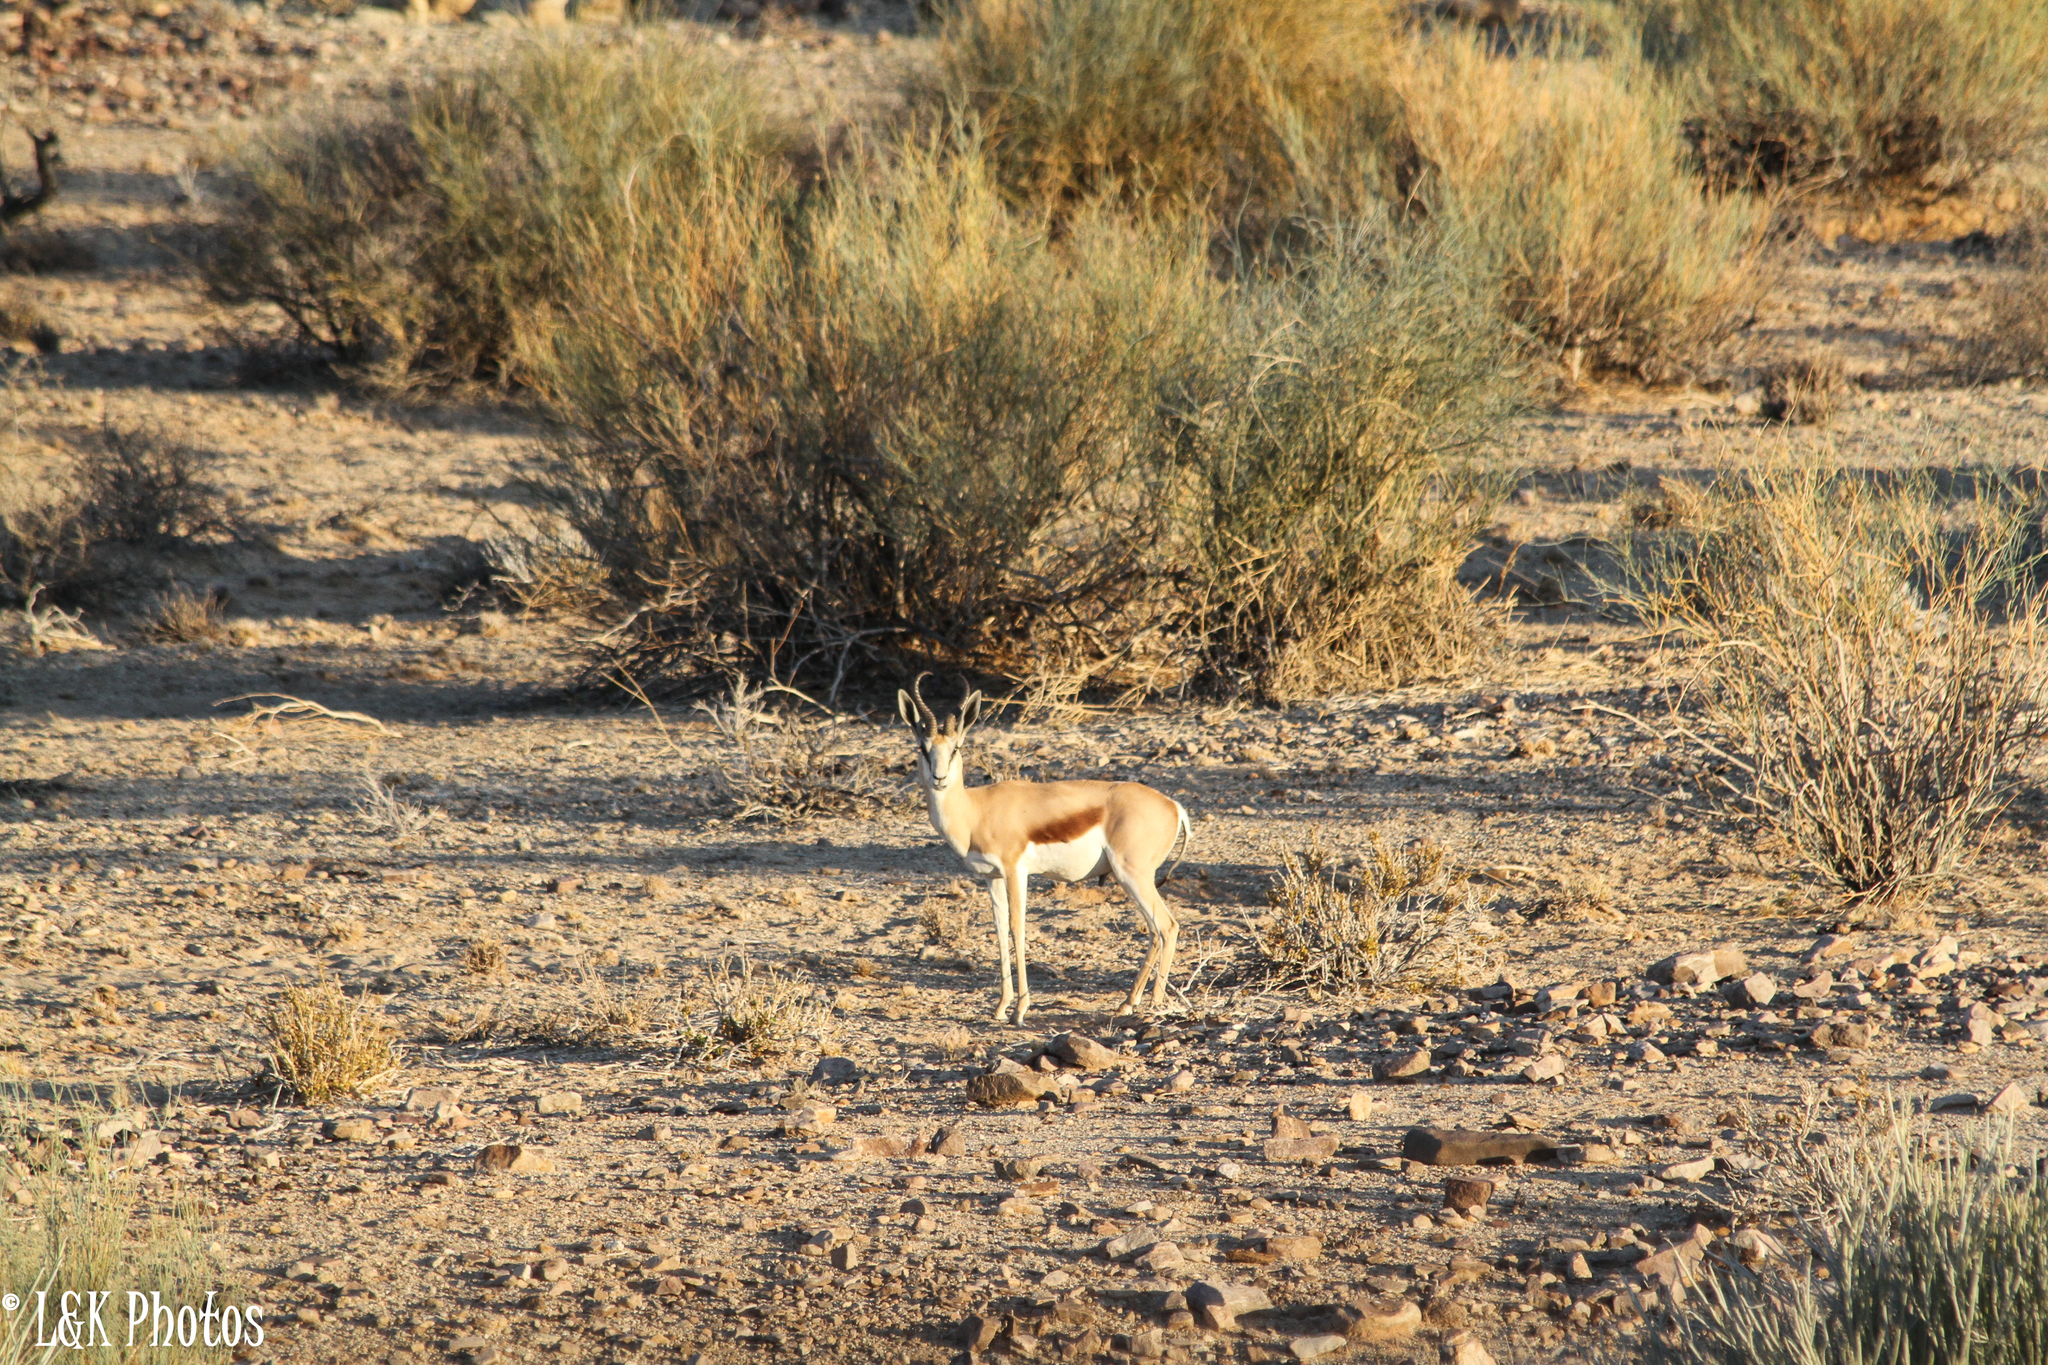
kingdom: Animalia
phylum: Chordata
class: Mammalia
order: Artiodactyla
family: Bovidae
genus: Antidorcas
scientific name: Antidorcas marsupialis
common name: Springbok
